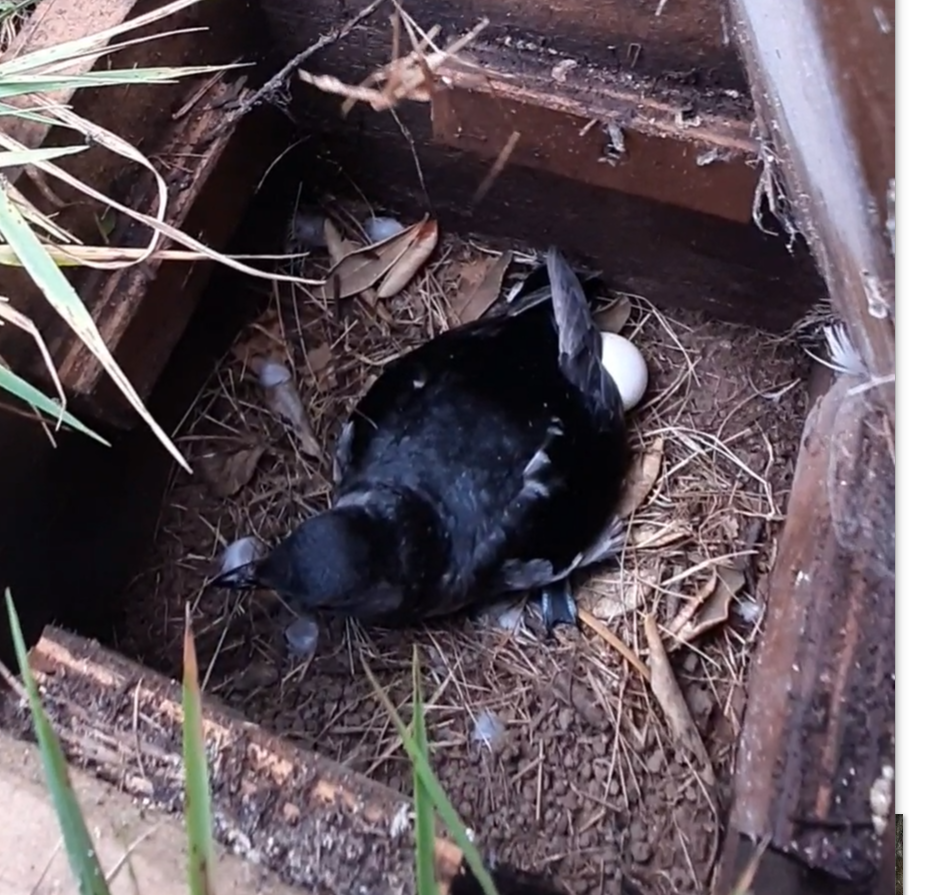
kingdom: Animalia
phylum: Chordata
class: Aves
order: Procellariiformes
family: Pelecanoididae
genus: Pelecanoides
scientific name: Pelecanoides urinatrix
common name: Common diving-petrel
